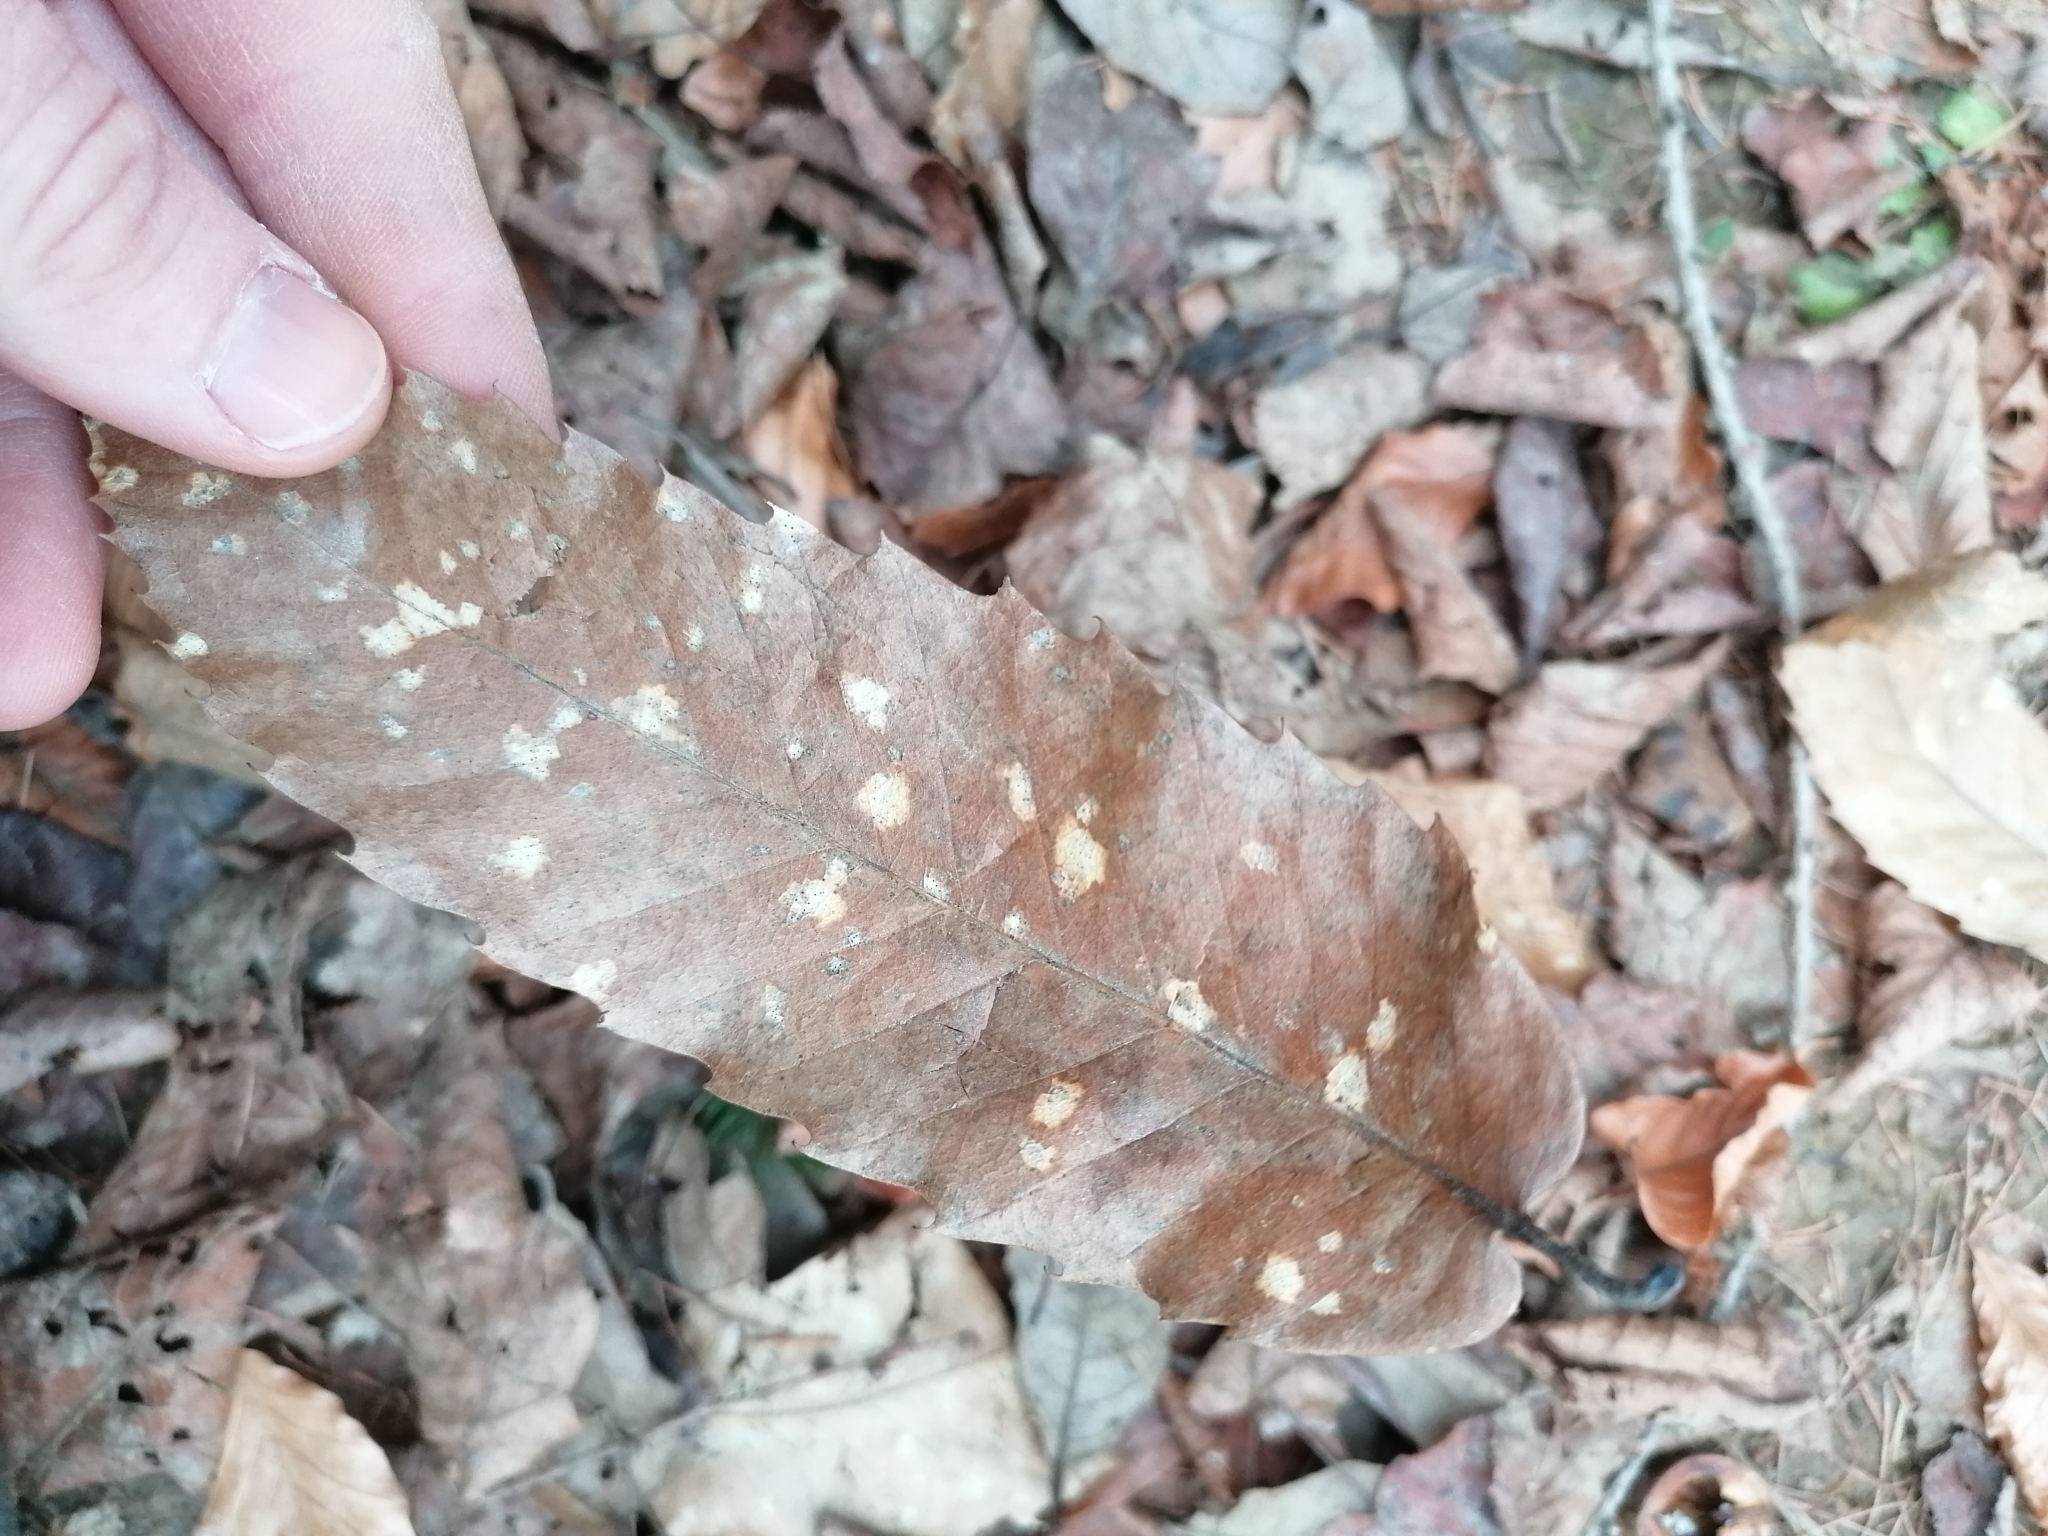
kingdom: Plantae
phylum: Tracheophyta
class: Magnoliopsida
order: Fagales
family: Fagaceae
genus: Castanea
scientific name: Castanea sativa
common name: Sweet chestnut
